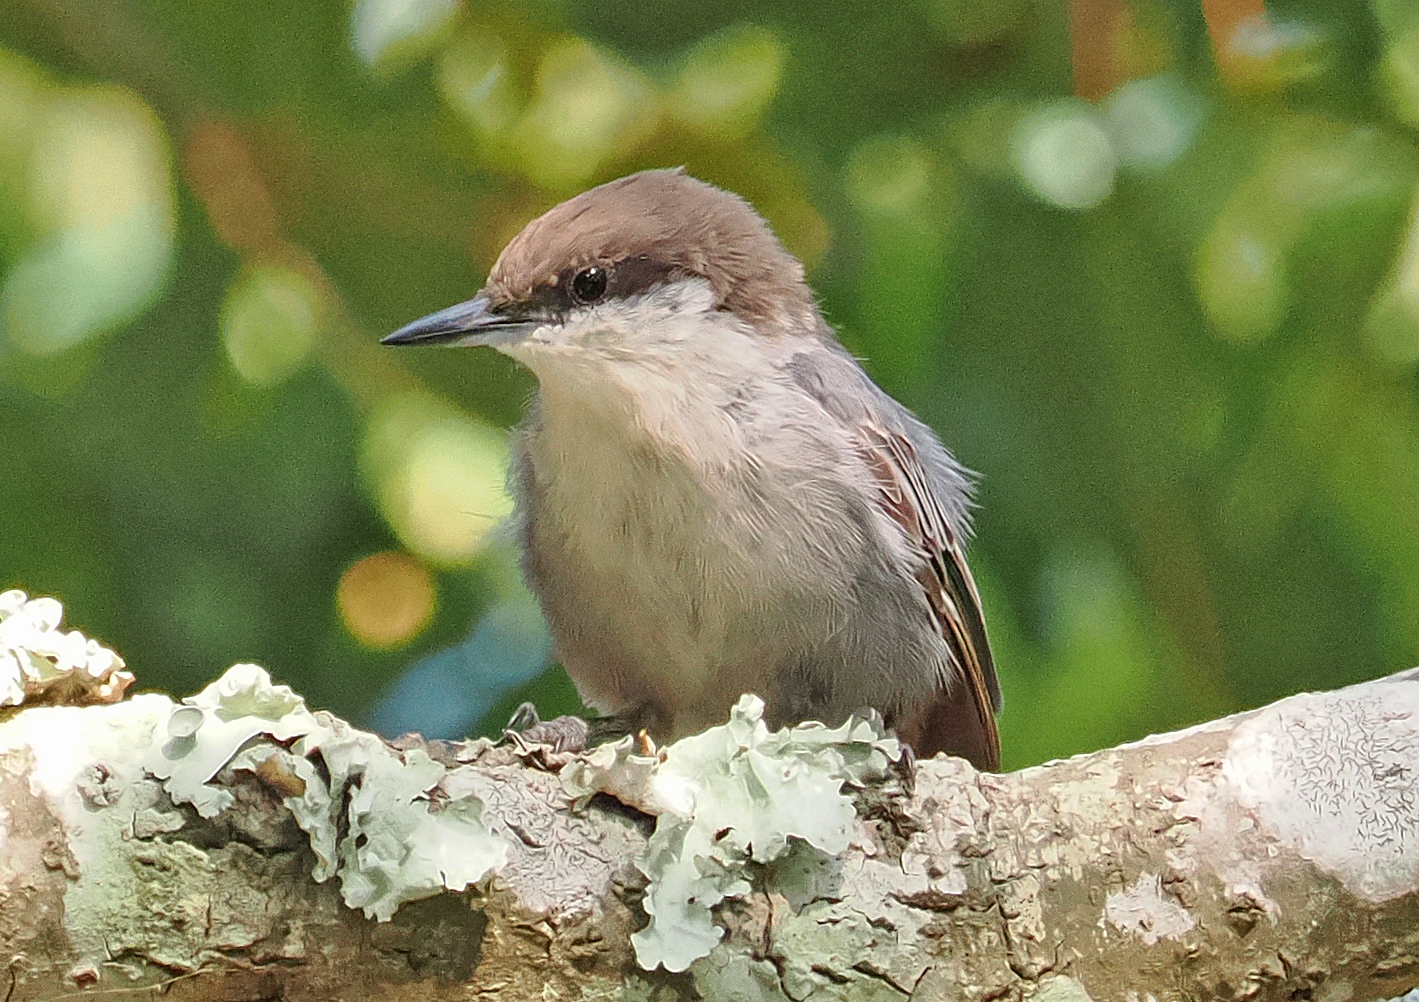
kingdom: Animalia
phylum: Chordata
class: Aves
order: Passeriformes
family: Sittidae
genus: Sitta
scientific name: Sitta pusilla
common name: Brown-headed nuthatch
